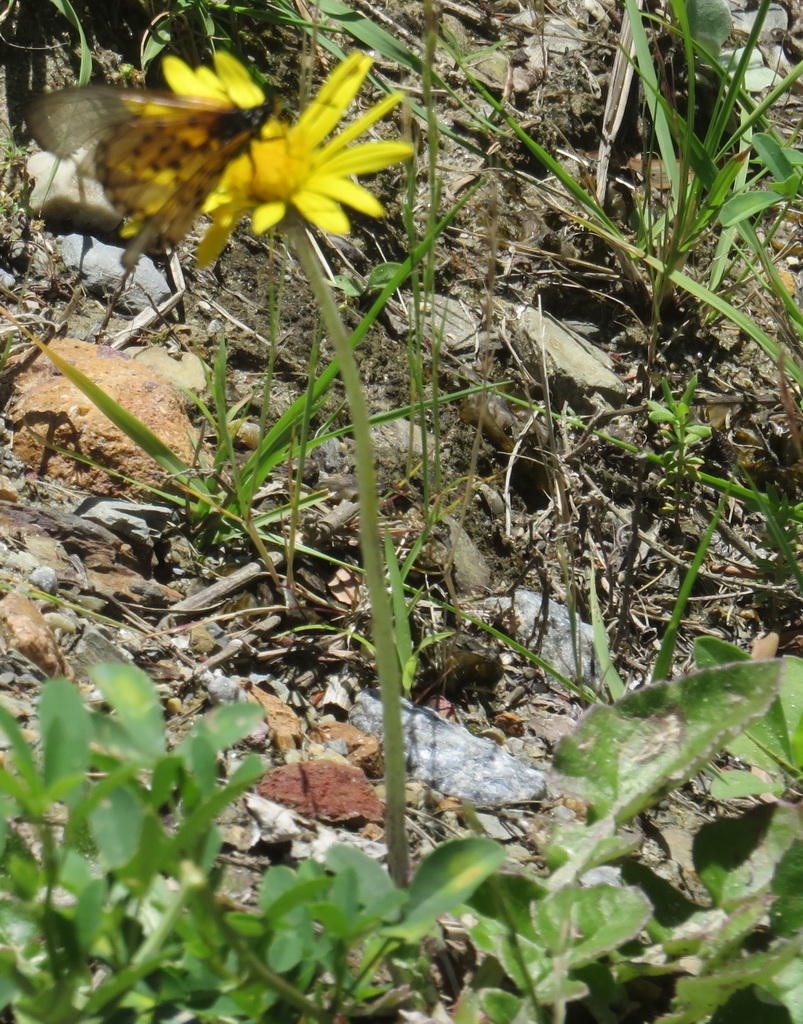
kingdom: Animalia
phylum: Arthropoda
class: Insecta
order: Lepidoptera
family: Nymphalidae
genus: Acraea
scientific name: Acraea horta
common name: Garden acraea
